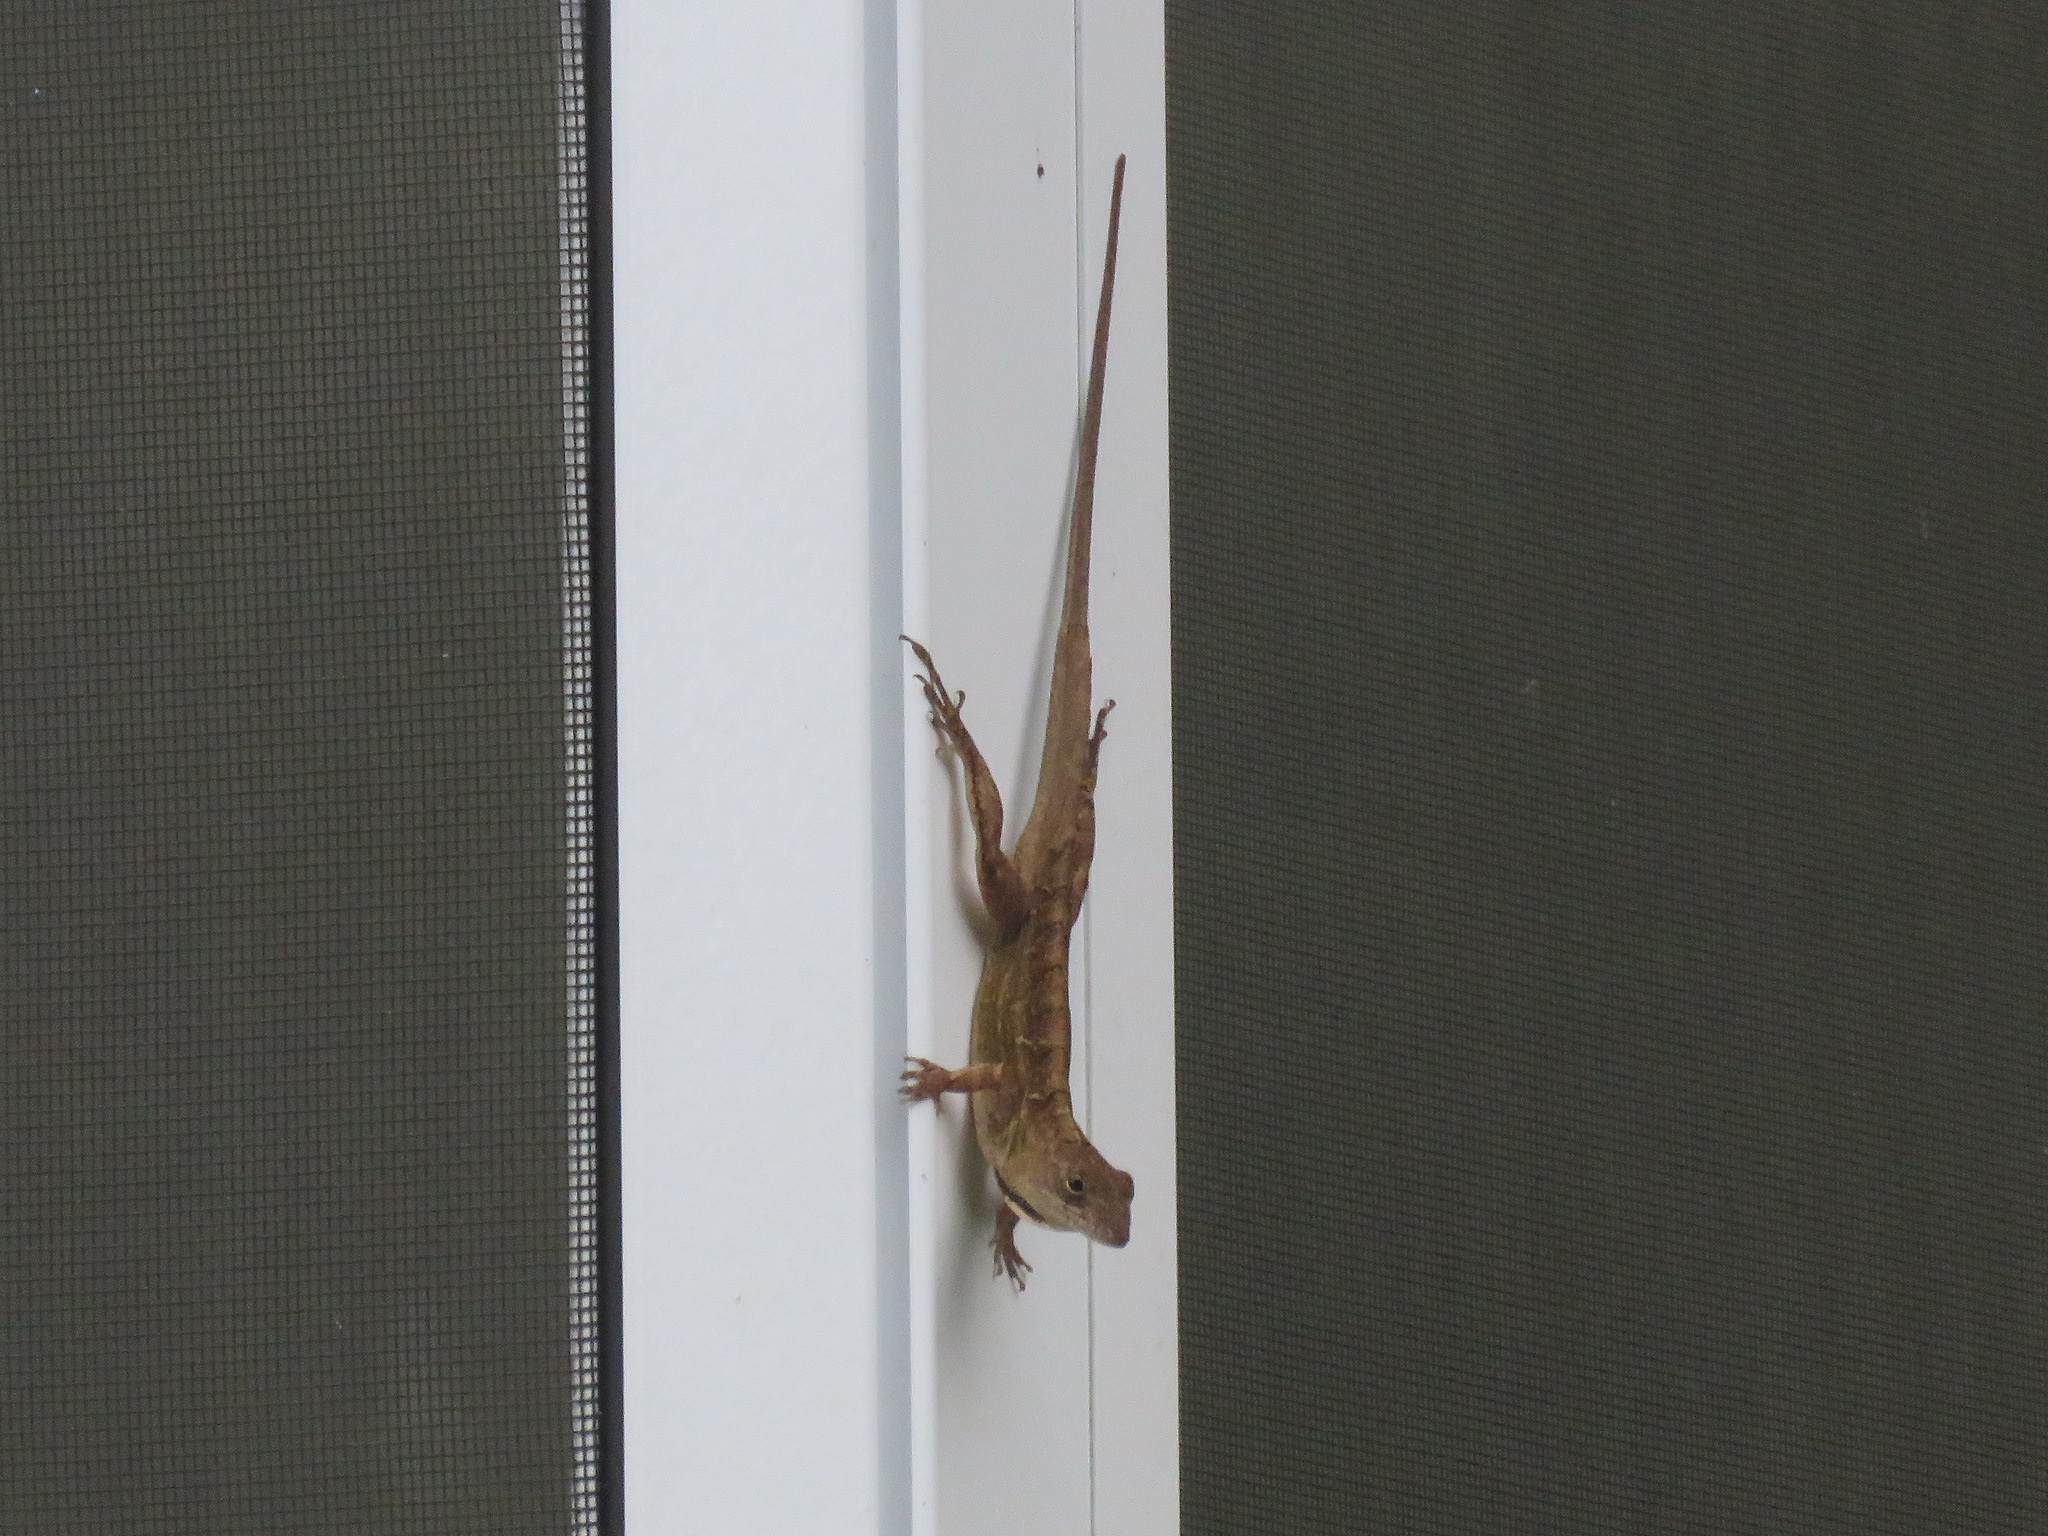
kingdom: Animalia
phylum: Chordata
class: Squamata
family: Dactyloidae
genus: Anolis
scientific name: Anolis sagrei
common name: Brown anole
